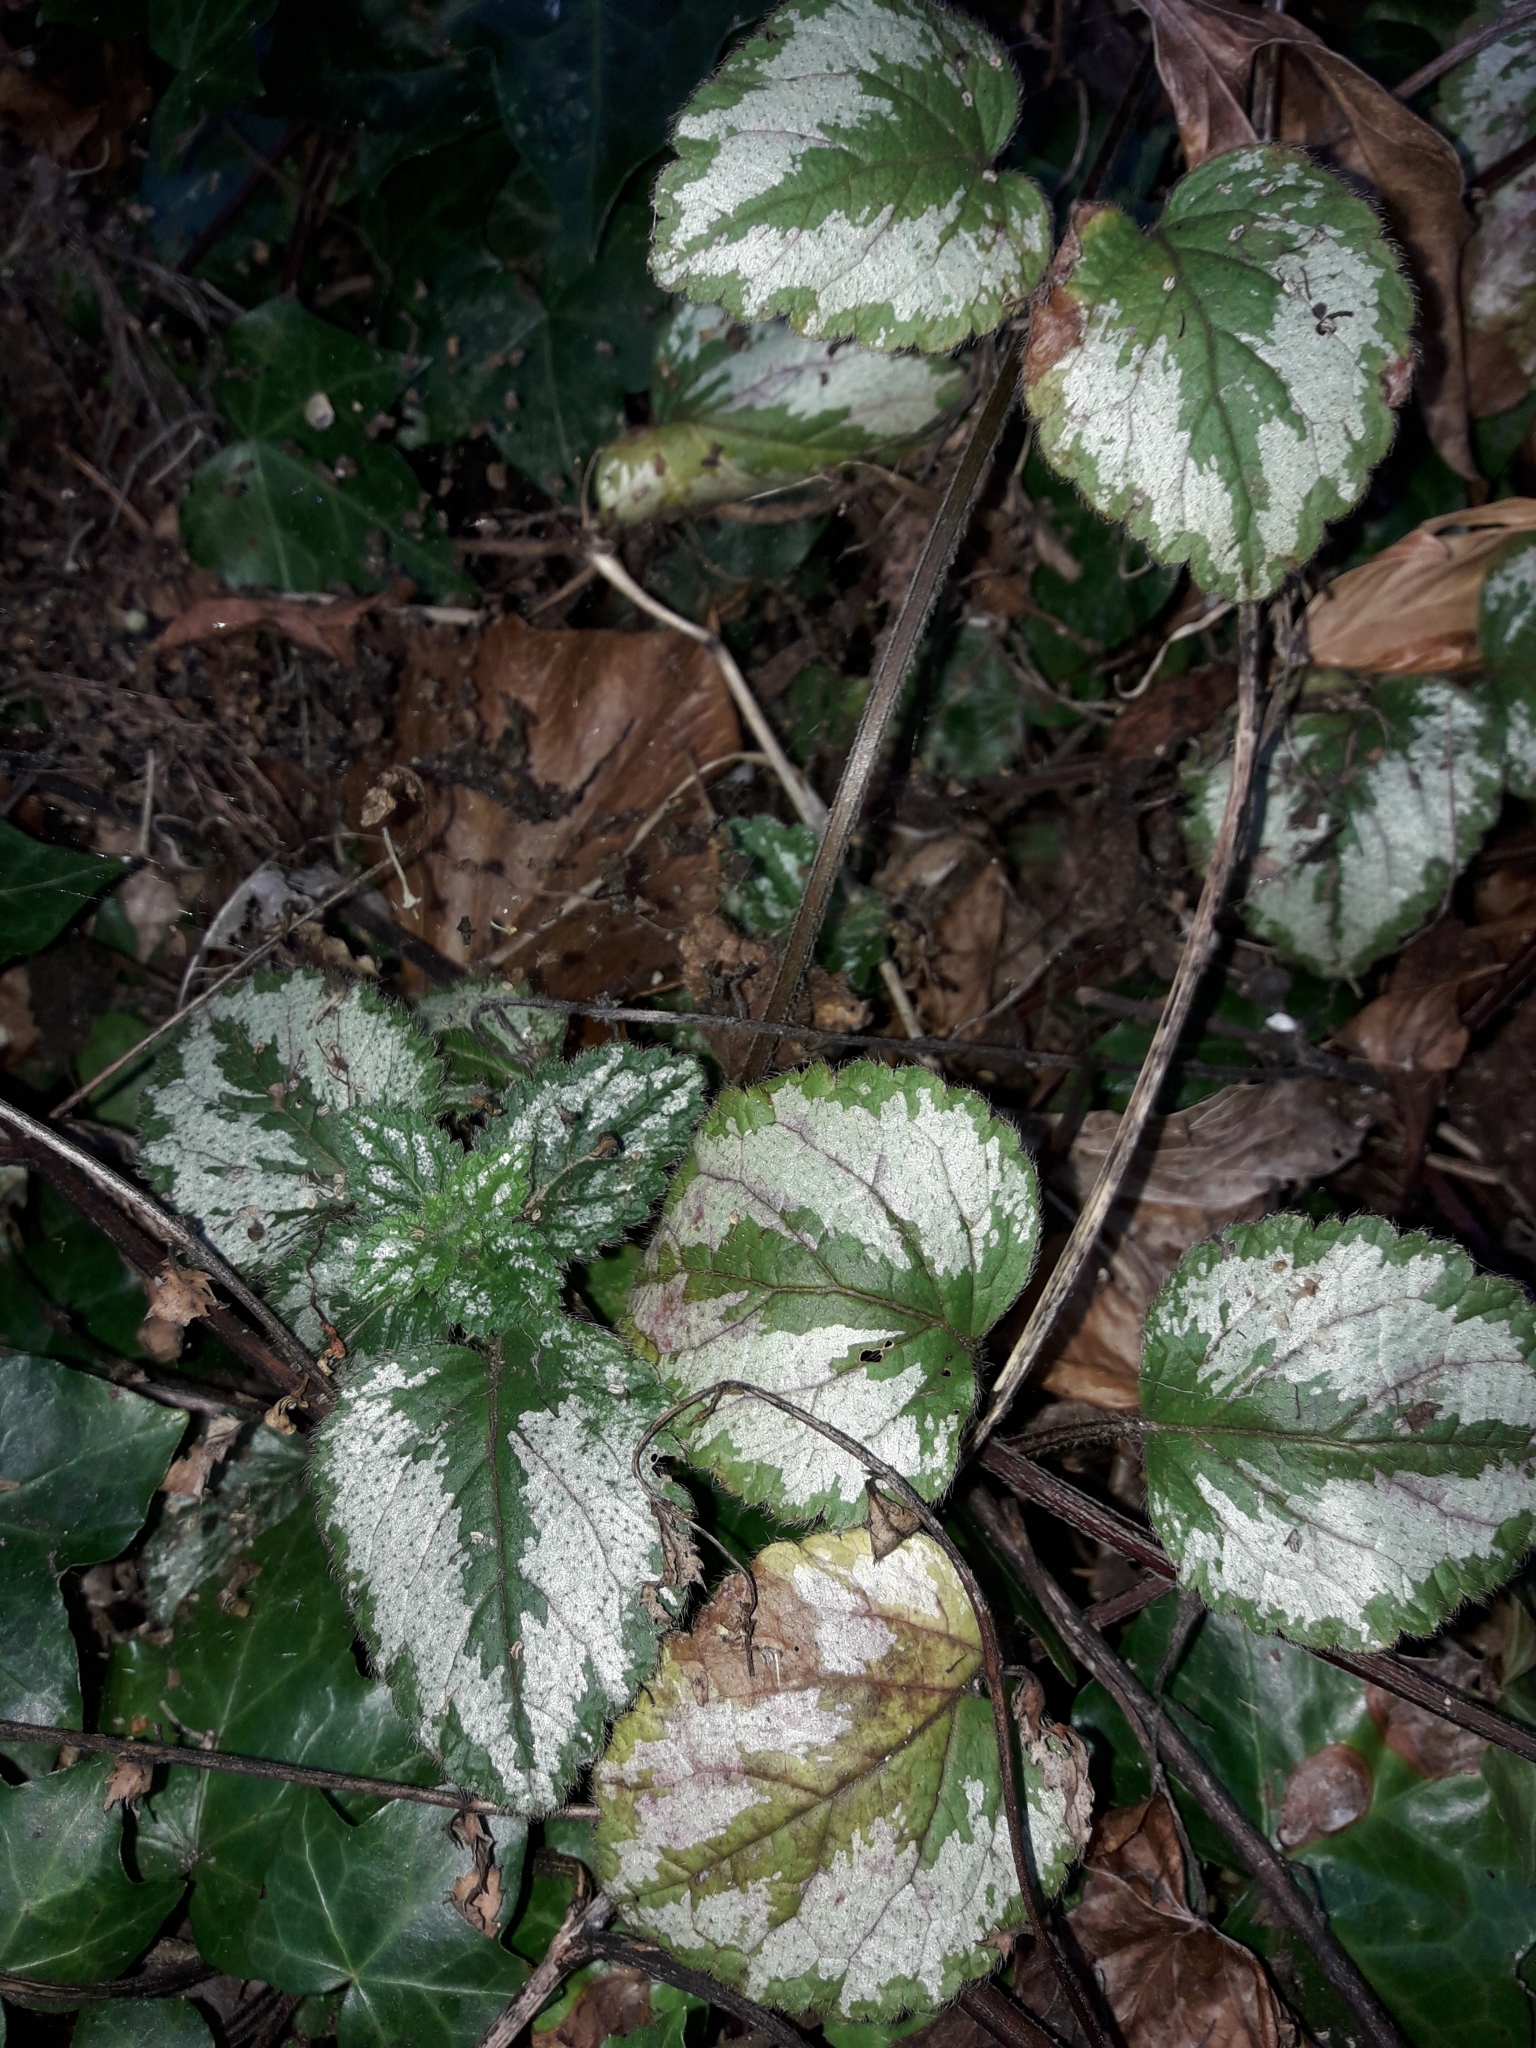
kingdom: Plantae
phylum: Tracheophyta
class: Magnoliopsida
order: Lamiales
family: Lamiaceae
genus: Lamium
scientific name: Lamium galeobdolon
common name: Yellow archangel
